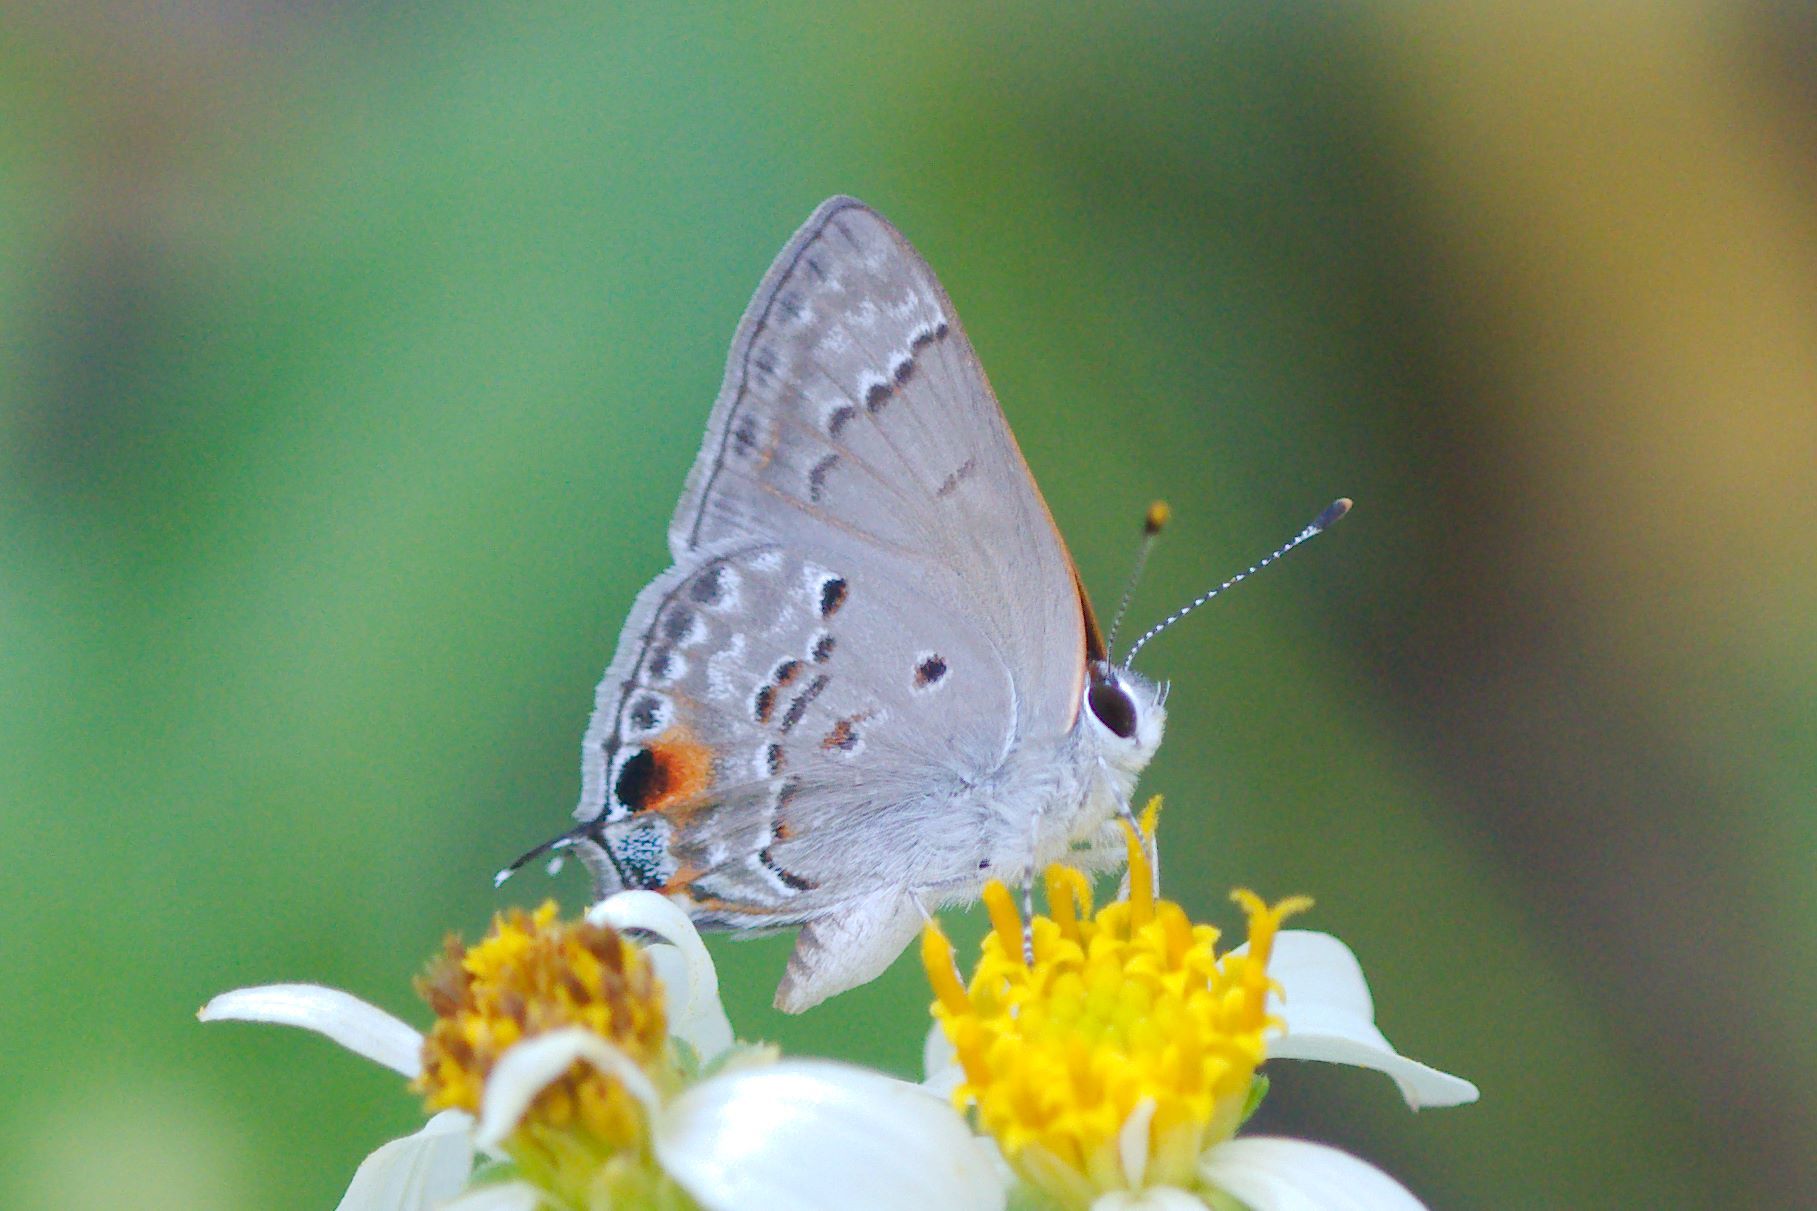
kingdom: Animalia
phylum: Arthropoda
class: Insecta
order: Lepidoptera
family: Lycaenidae
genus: Callicista
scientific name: Callicista columella
